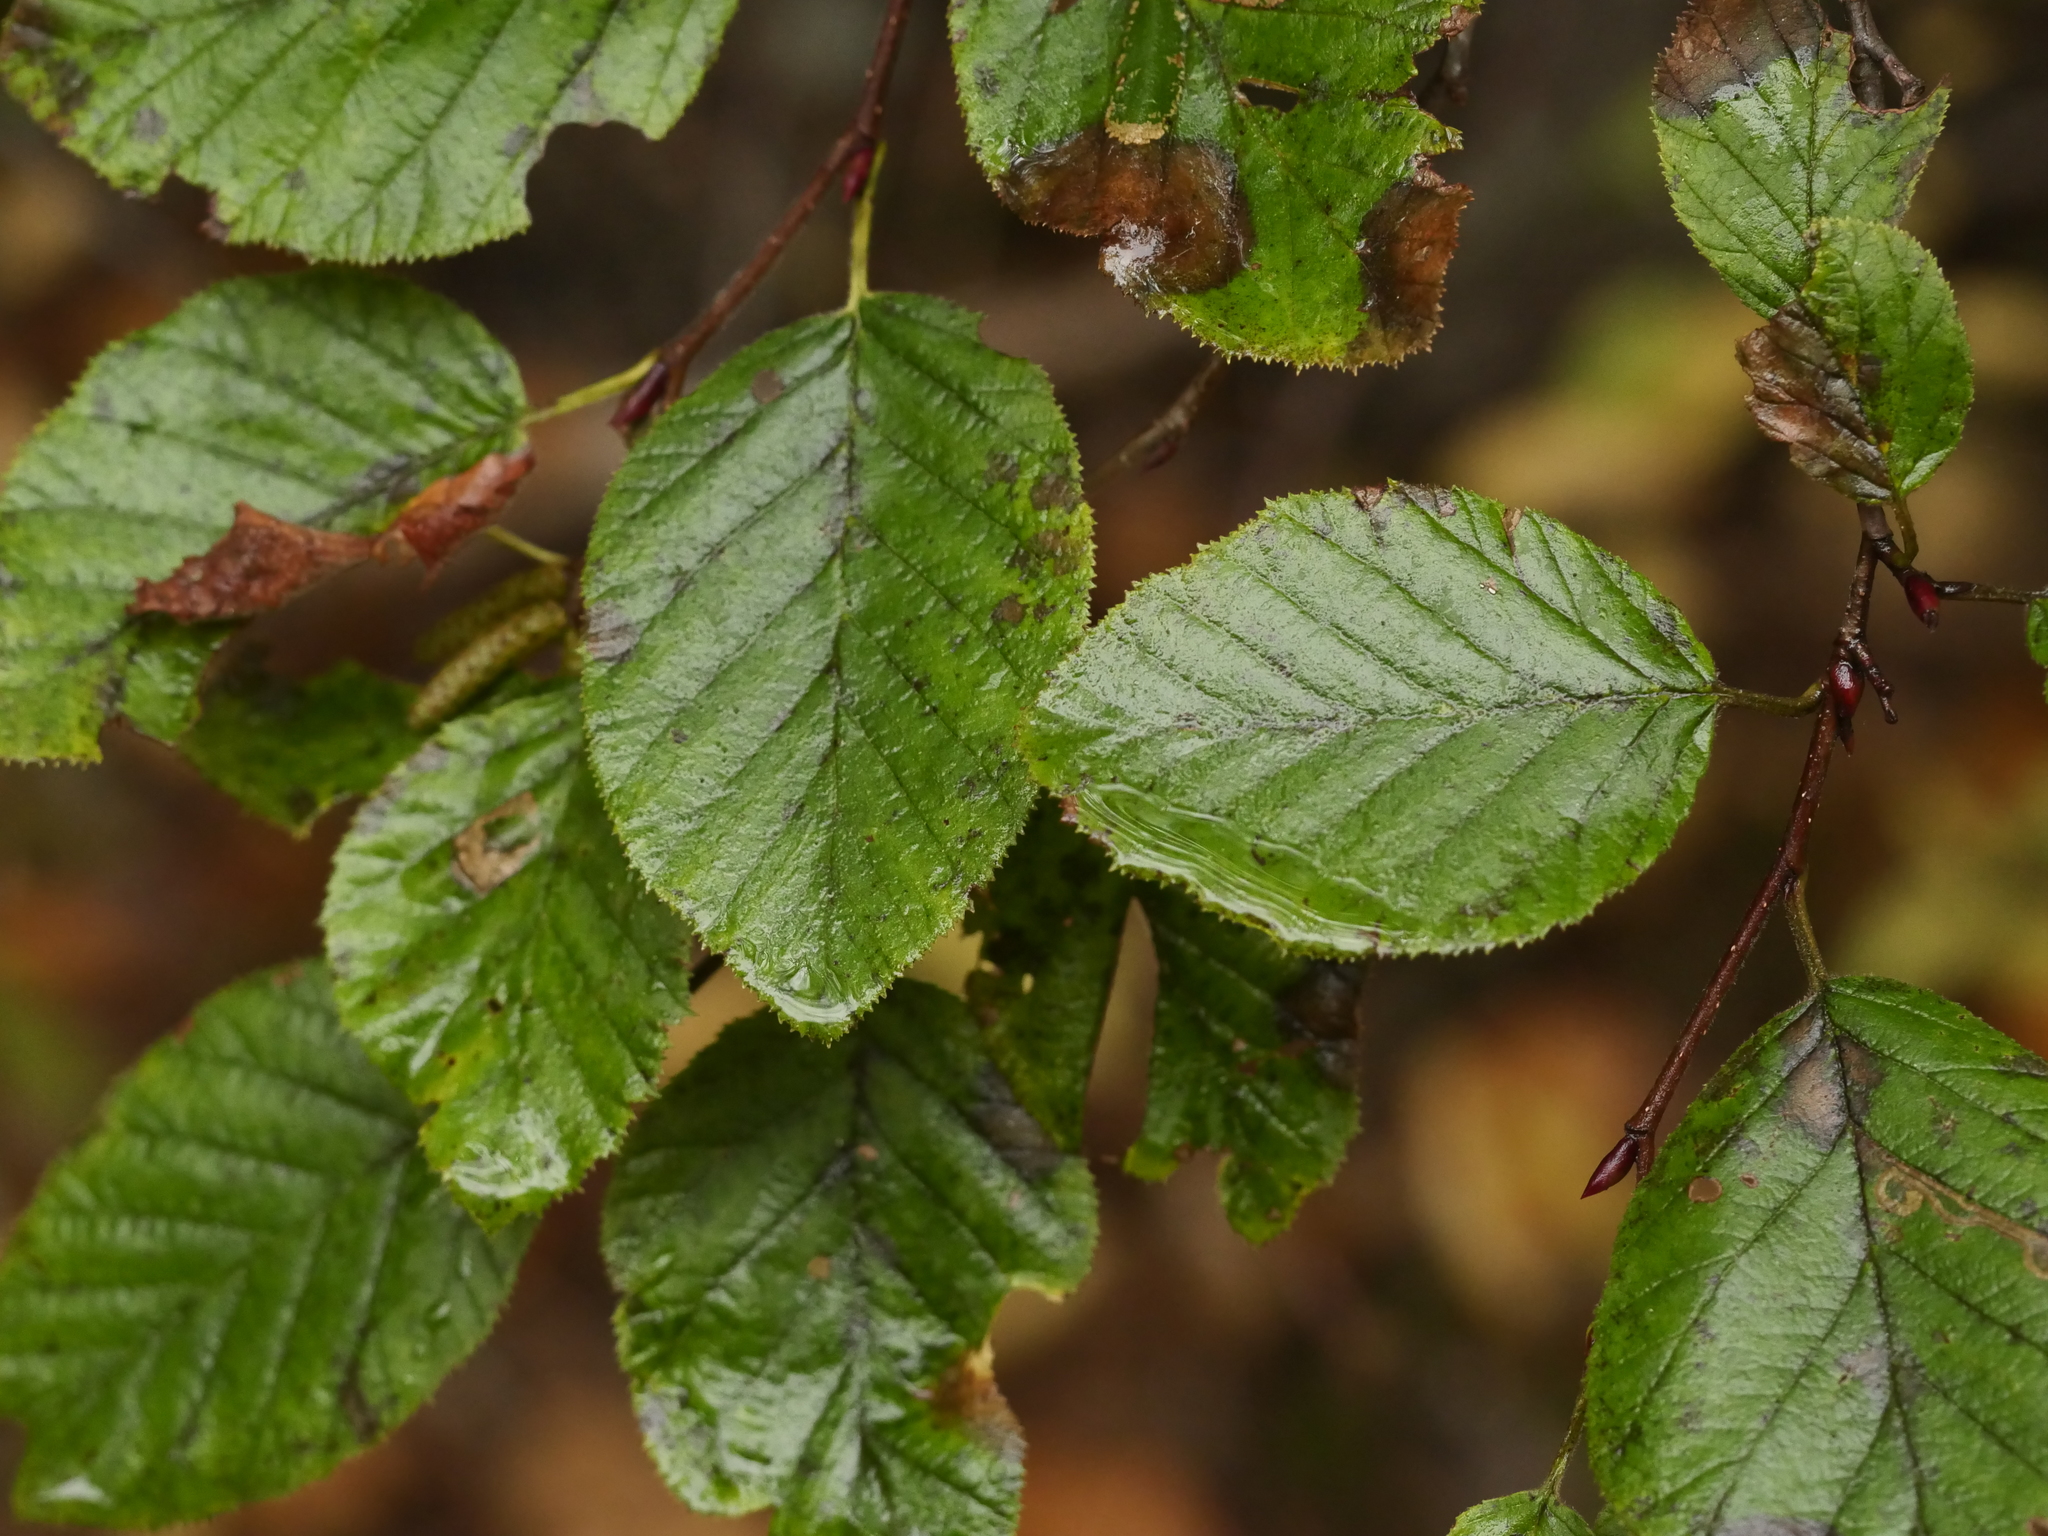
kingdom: Plantae
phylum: Tracheophyta
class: Magnoliopsida
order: Fagales
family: Betulaceae
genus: Alnus
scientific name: Alnus alnobetula
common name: Green alder
